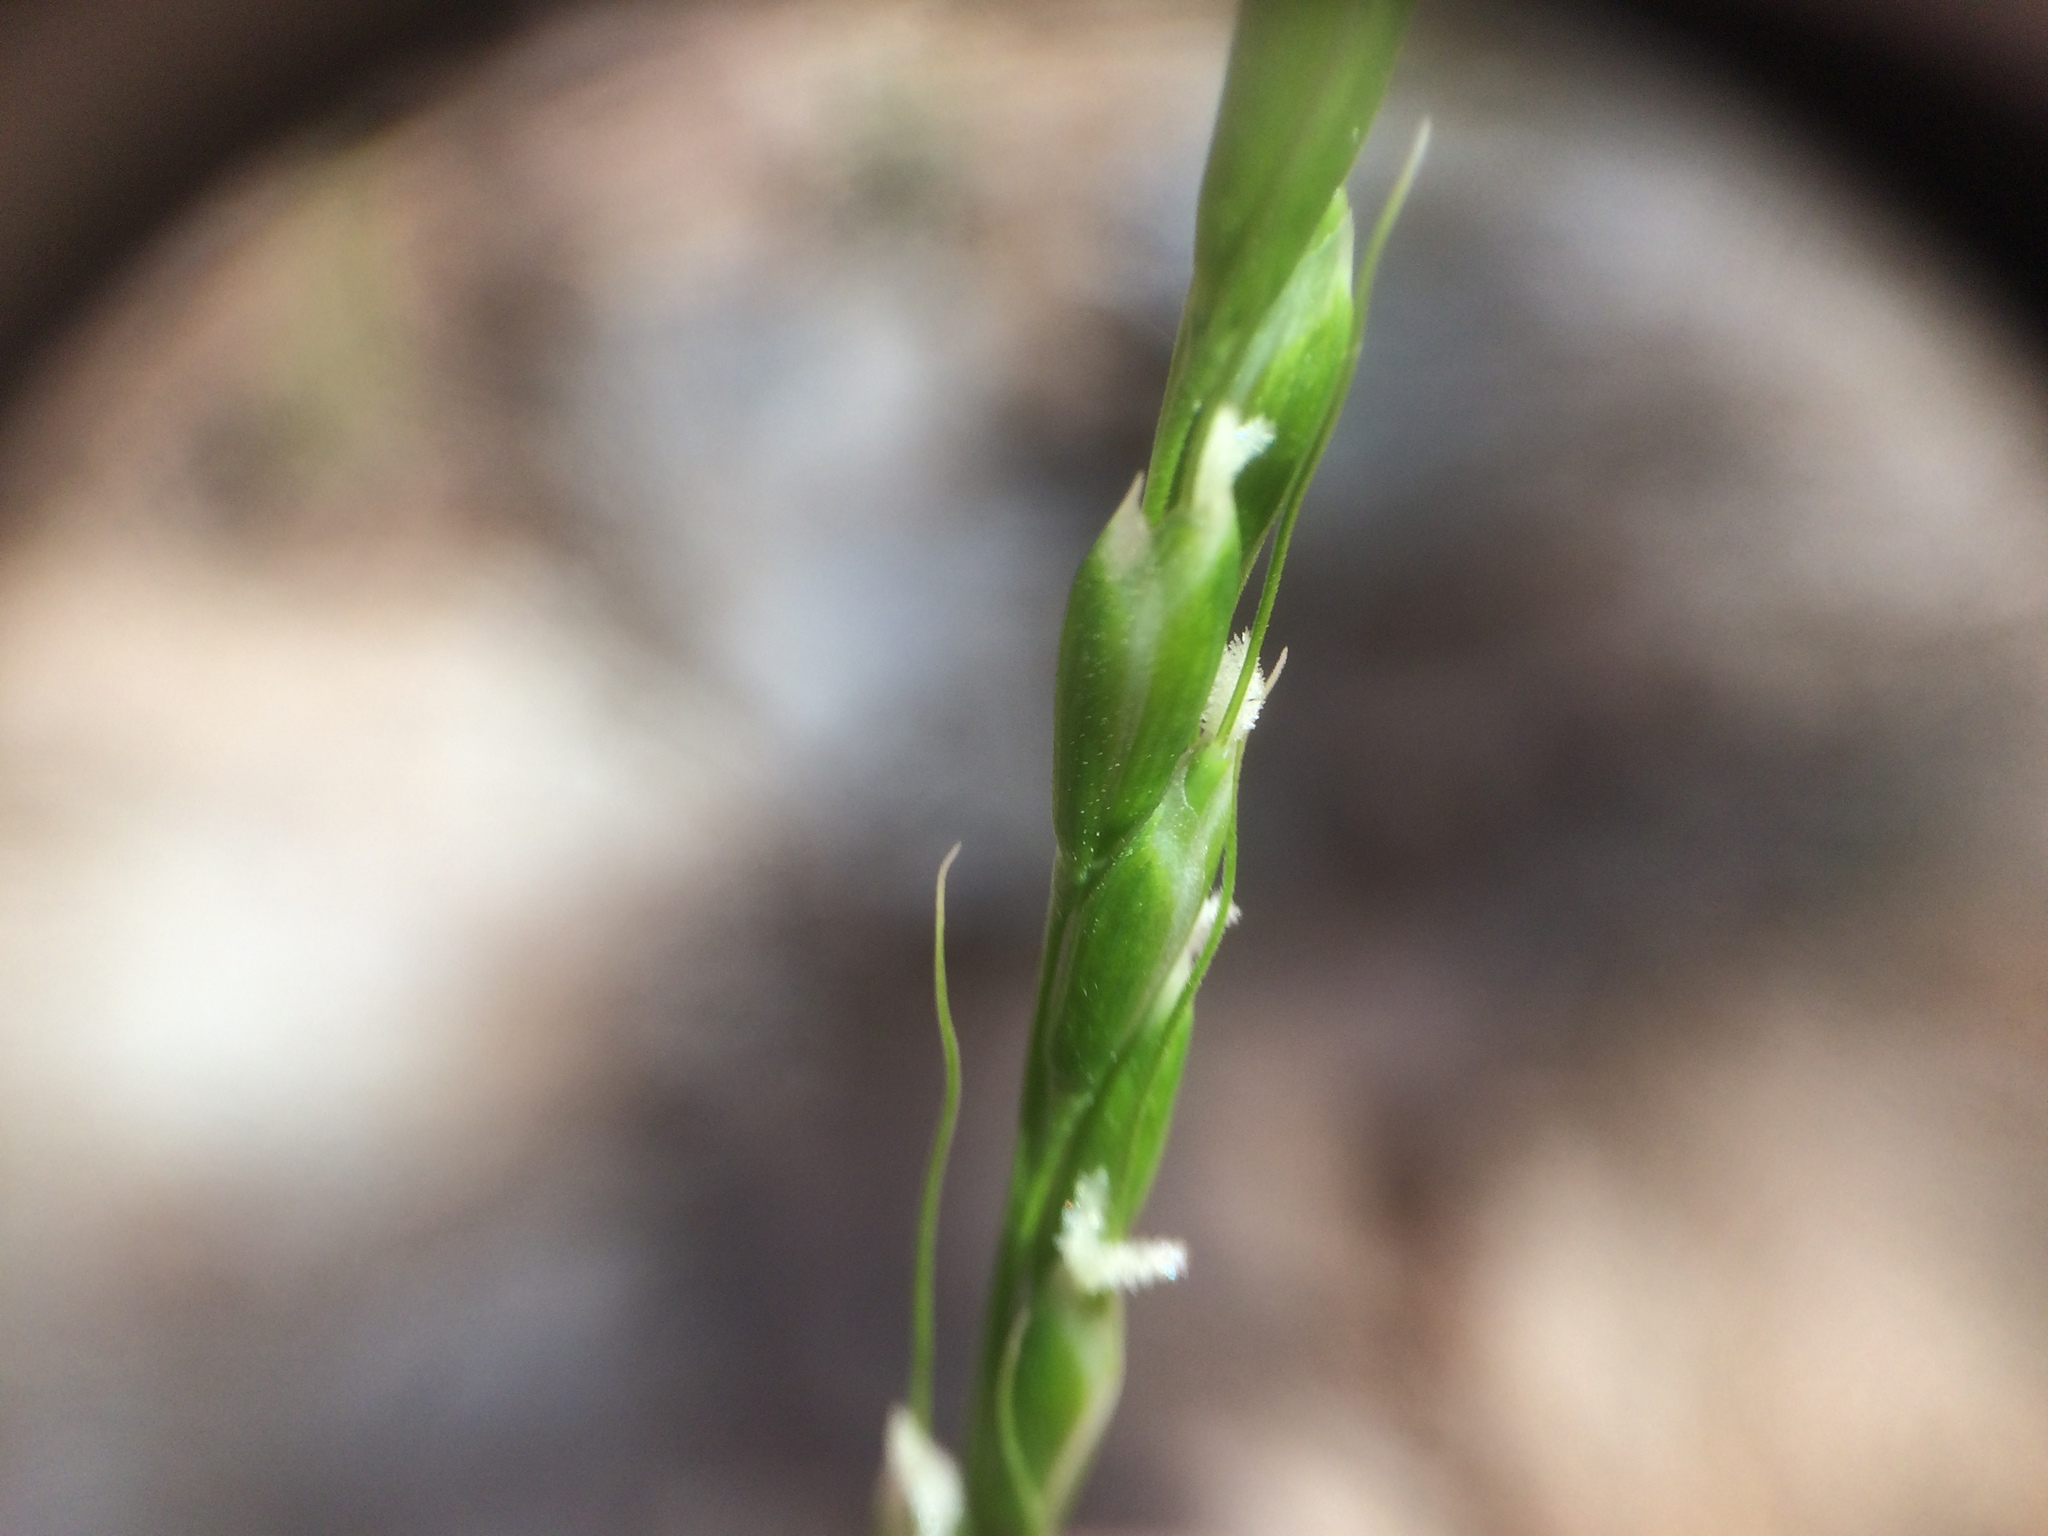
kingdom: Plantae
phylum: Tracheophyta
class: Liliopsida
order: Poales
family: Poaceae
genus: Oryzopsis
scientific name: Oryzopsis asperifolia
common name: Rough-leaved mountain rice
